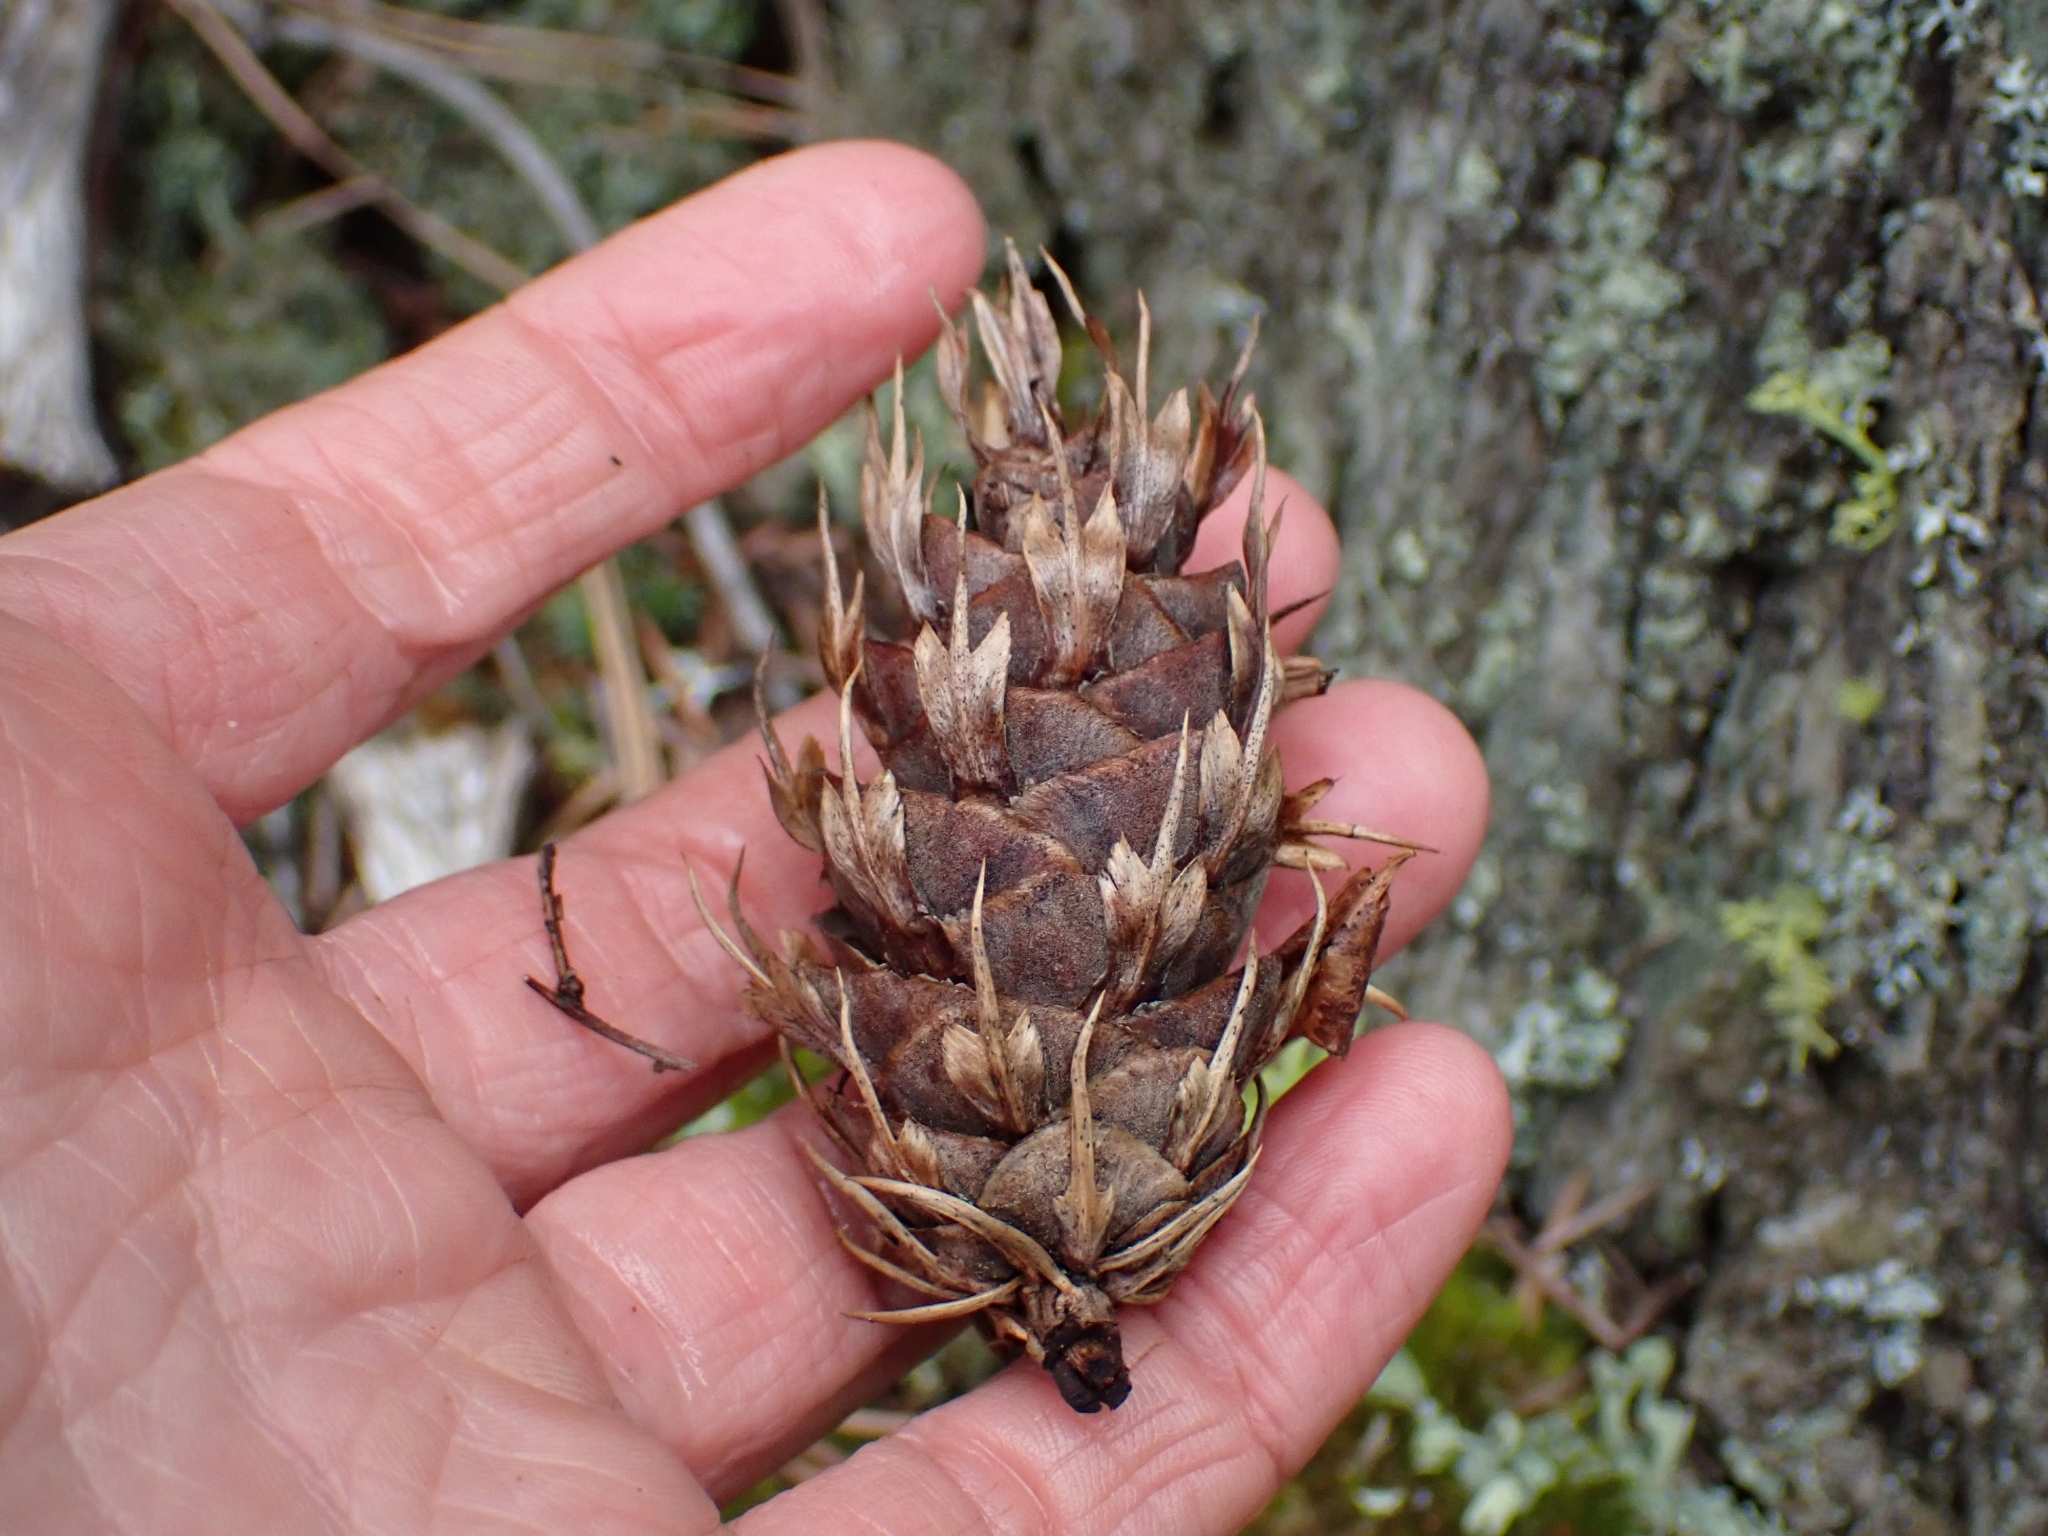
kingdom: Plantae
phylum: Tracheophyta
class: Pinopsida
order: Pinales
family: Pinaceae
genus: Pseudotsuga
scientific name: Pseudotsuga menziesii
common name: Douglas fir
